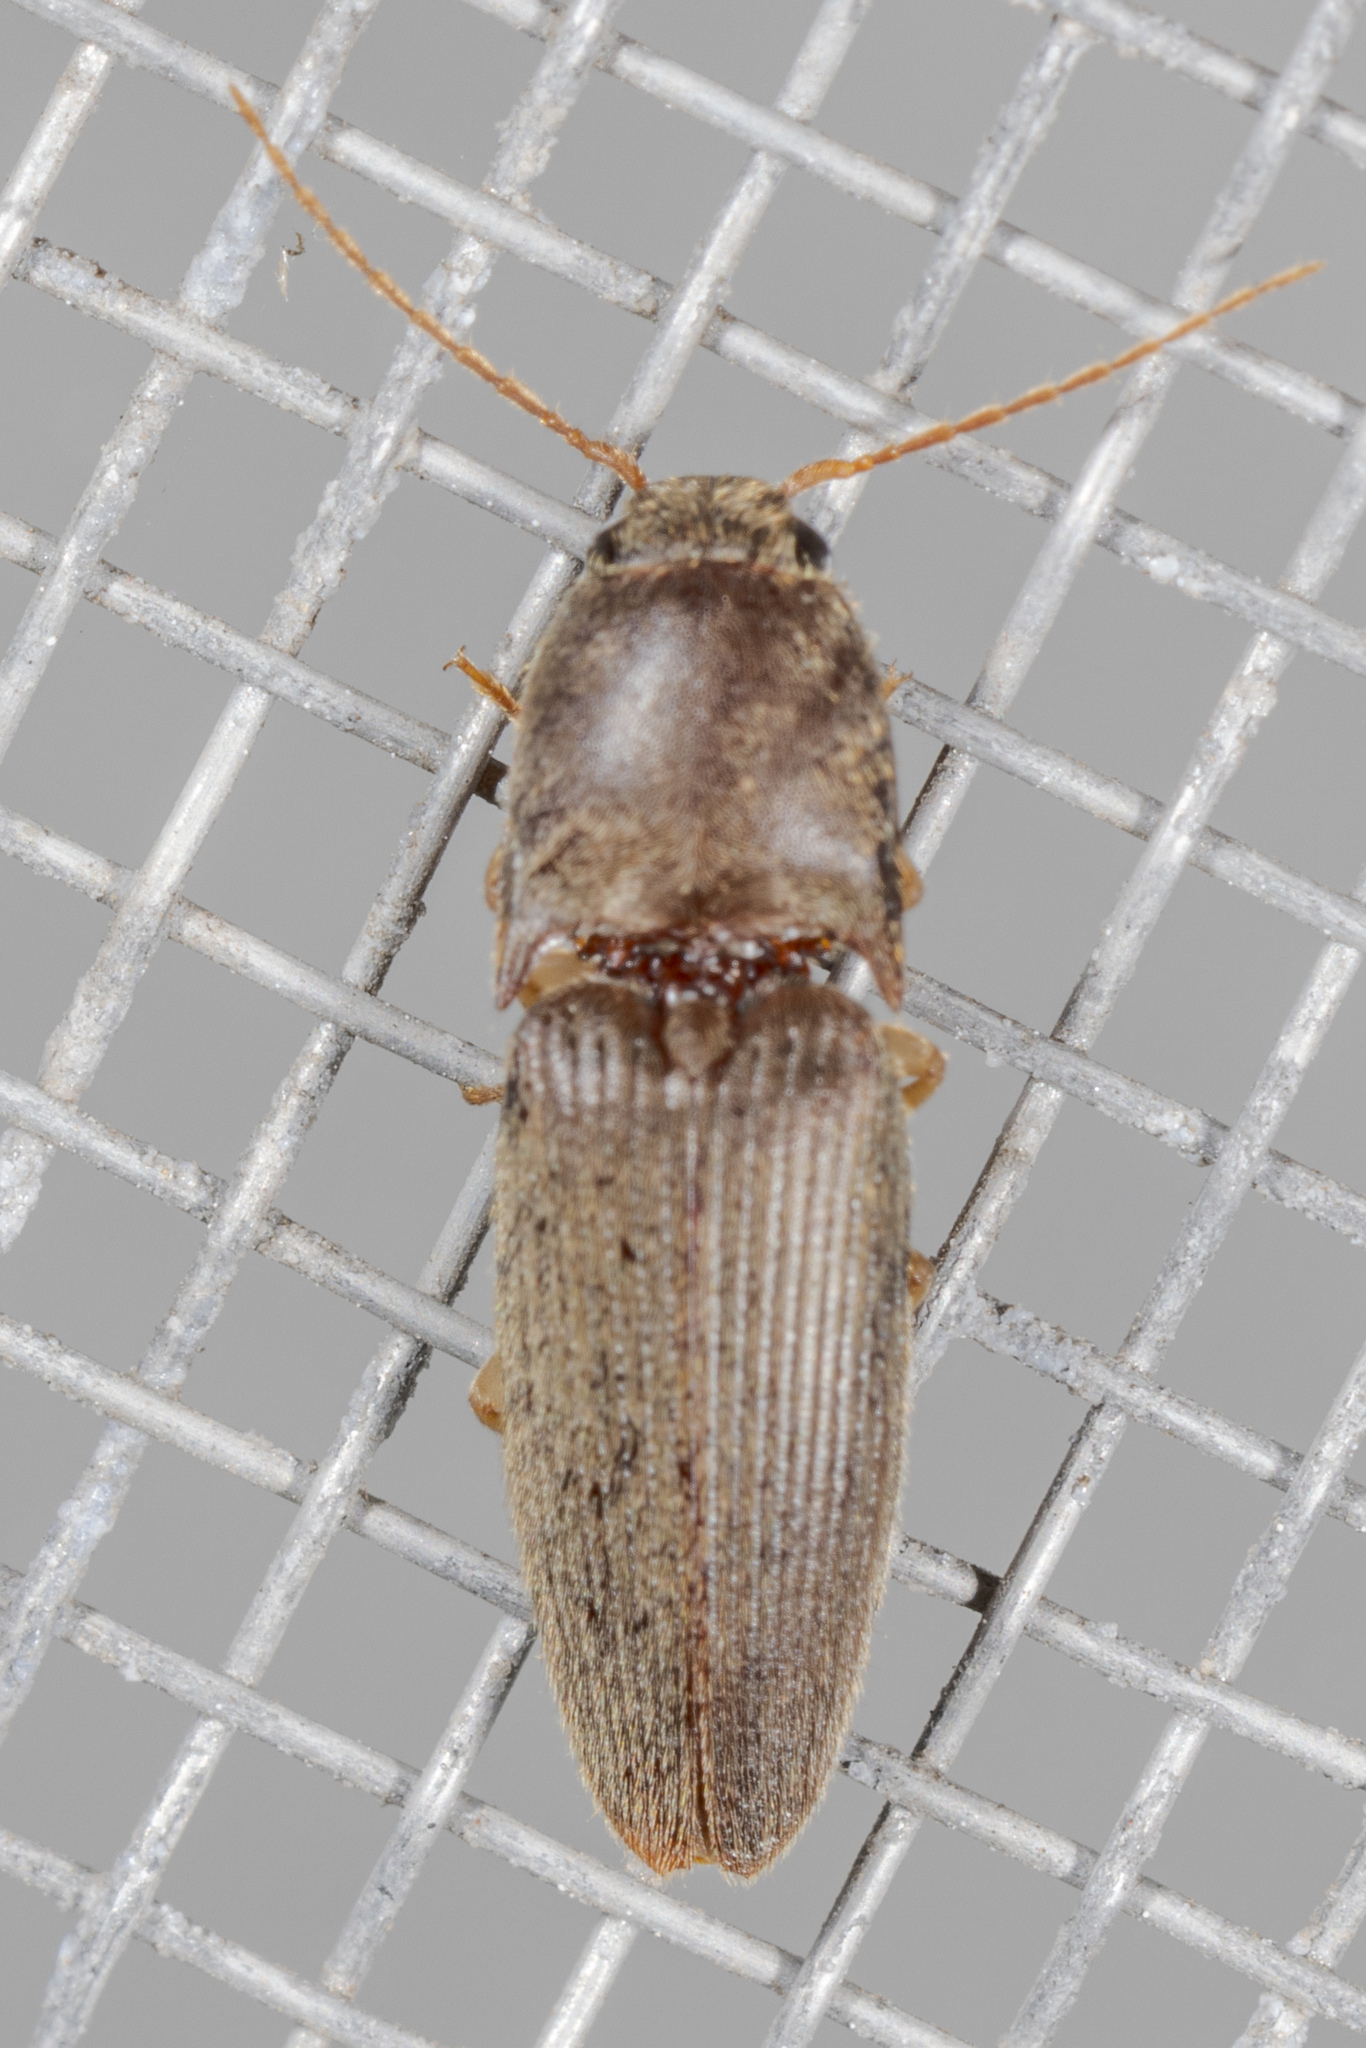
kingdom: Animalia
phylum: Arthropoda
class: Insecta
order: Coleoptera
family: Elateridae
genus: Conoderus
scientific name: Conoderus exsul
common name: Click beetle
